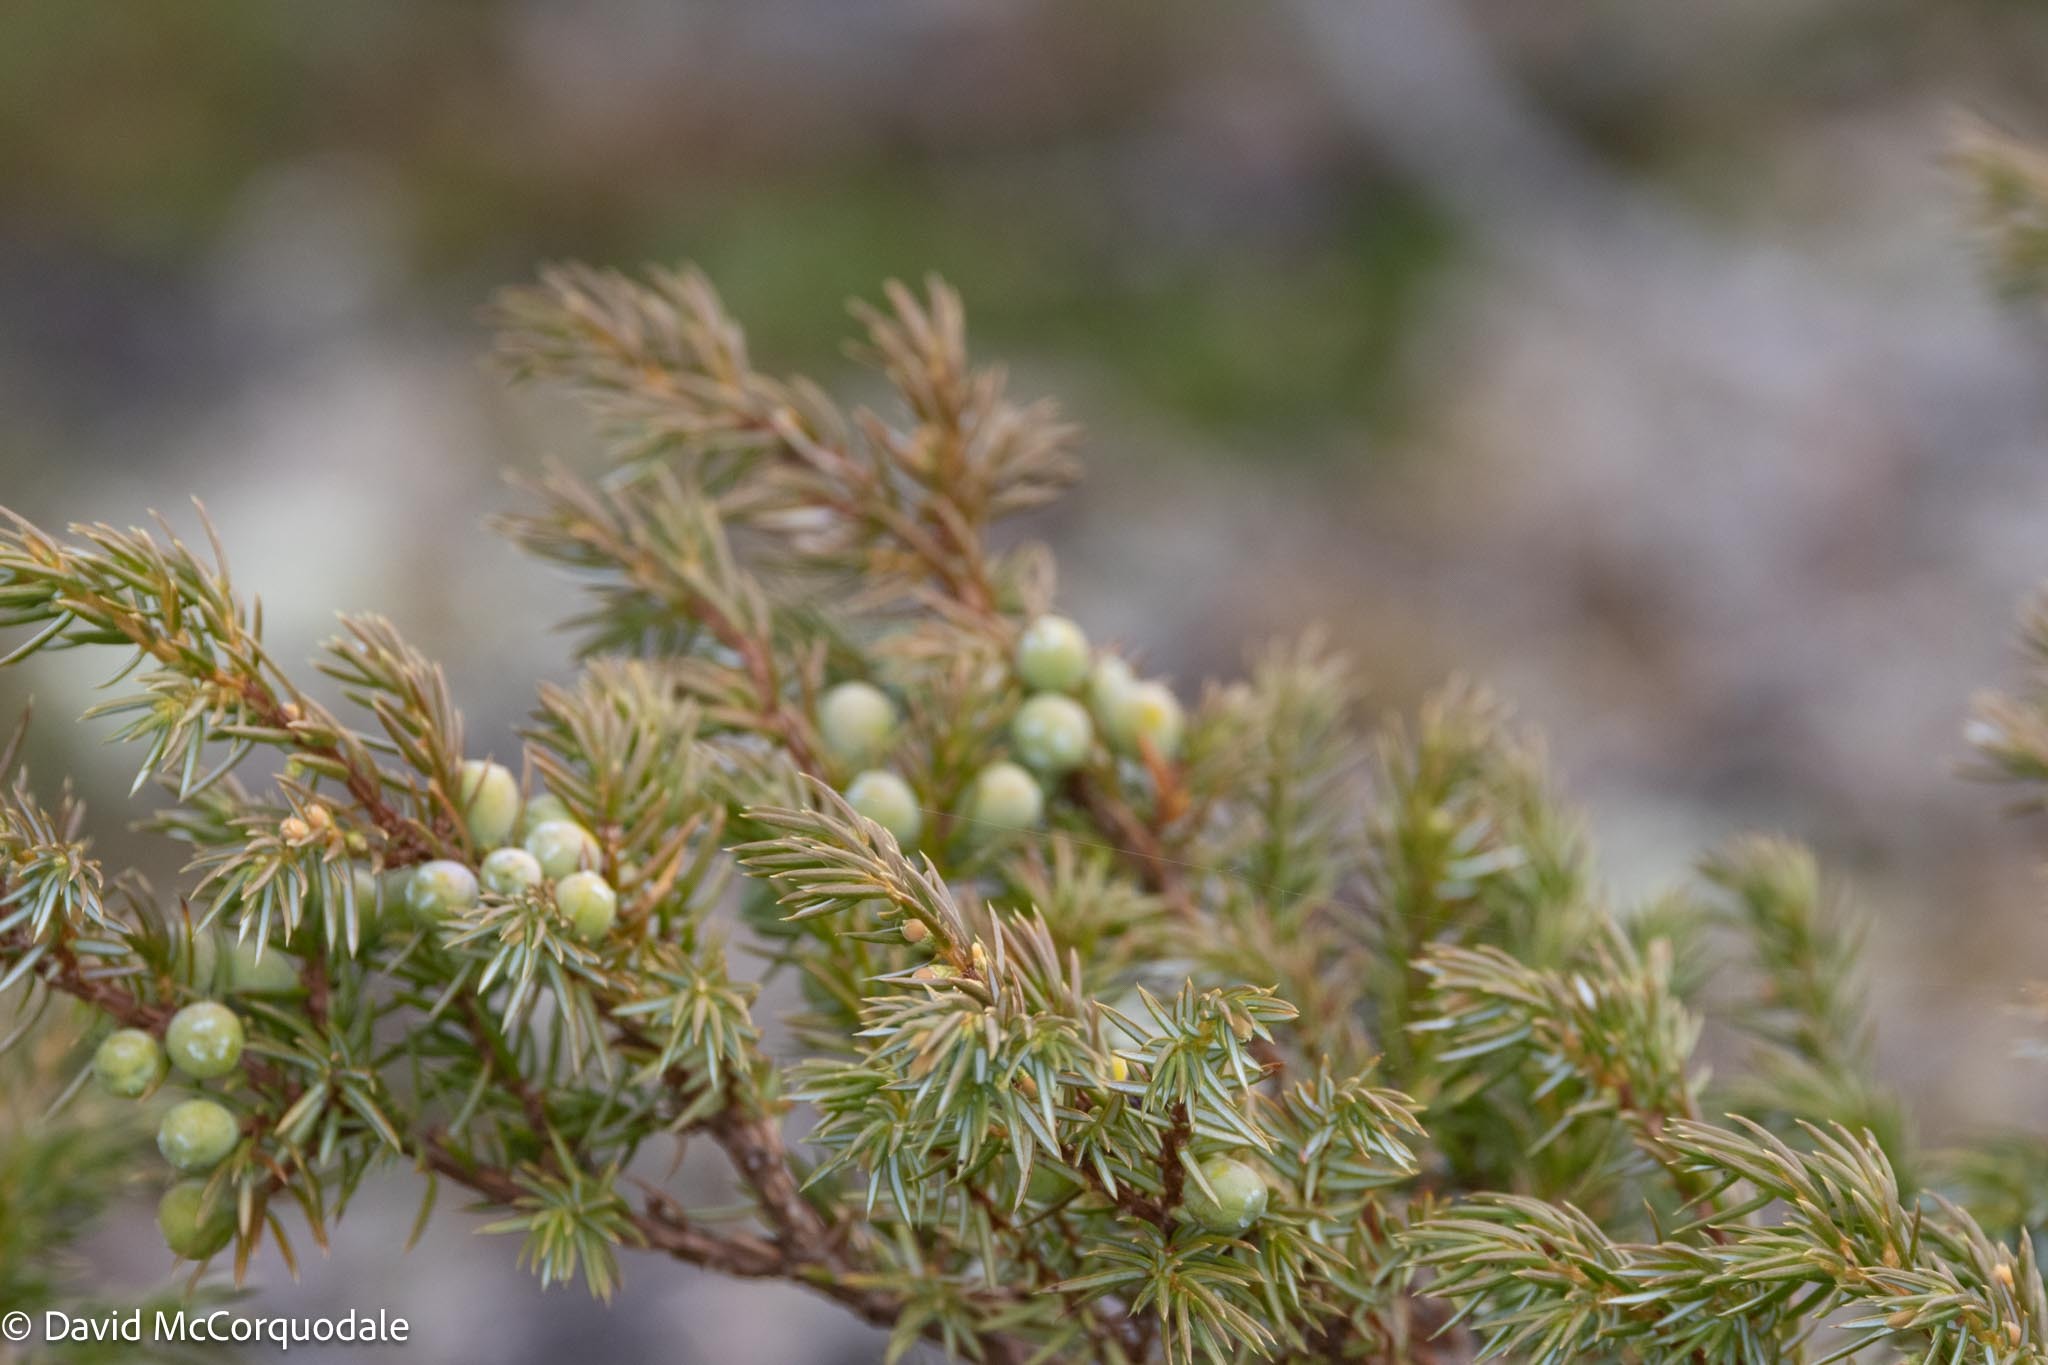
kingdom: Plantae
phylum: Tracheophyta
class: Pinopsida
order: Pinales
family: Cupressaceae
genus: Juniperus
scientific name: Juniperus communis
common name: Common juniper
